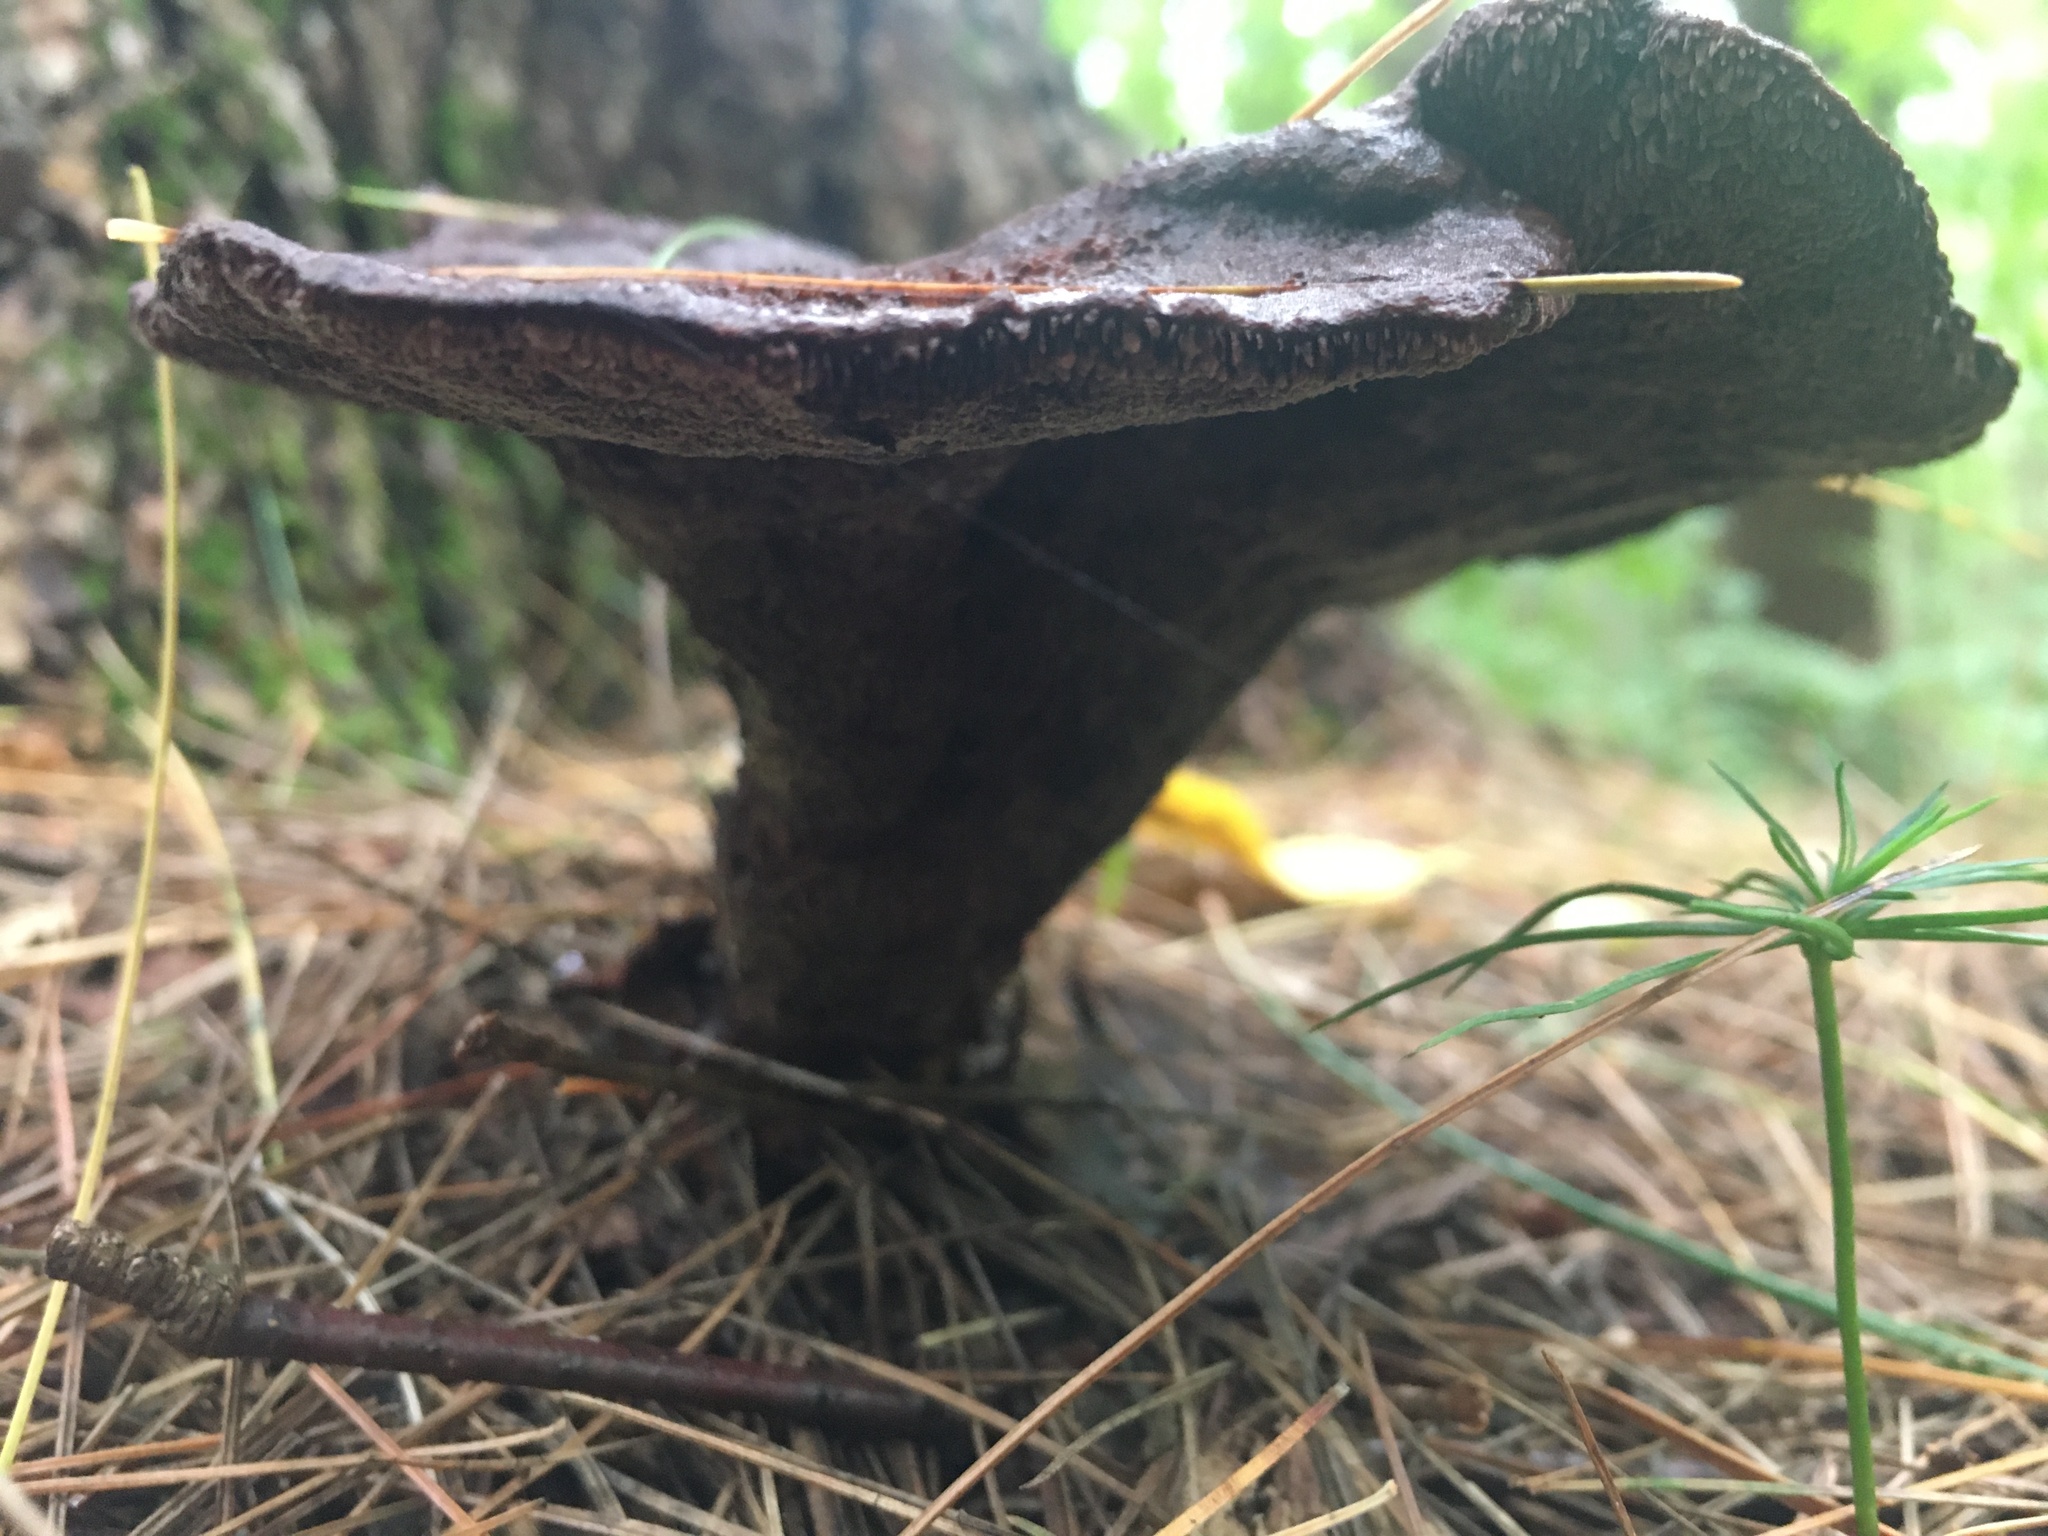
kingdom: Fungi
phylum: Basidiomycota
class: Agaricomycetes
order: Polyporales
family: Laetiporaceae
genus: Phaeolus
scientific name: Phaeolus schweinitzii
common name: Dyer's mazegill
